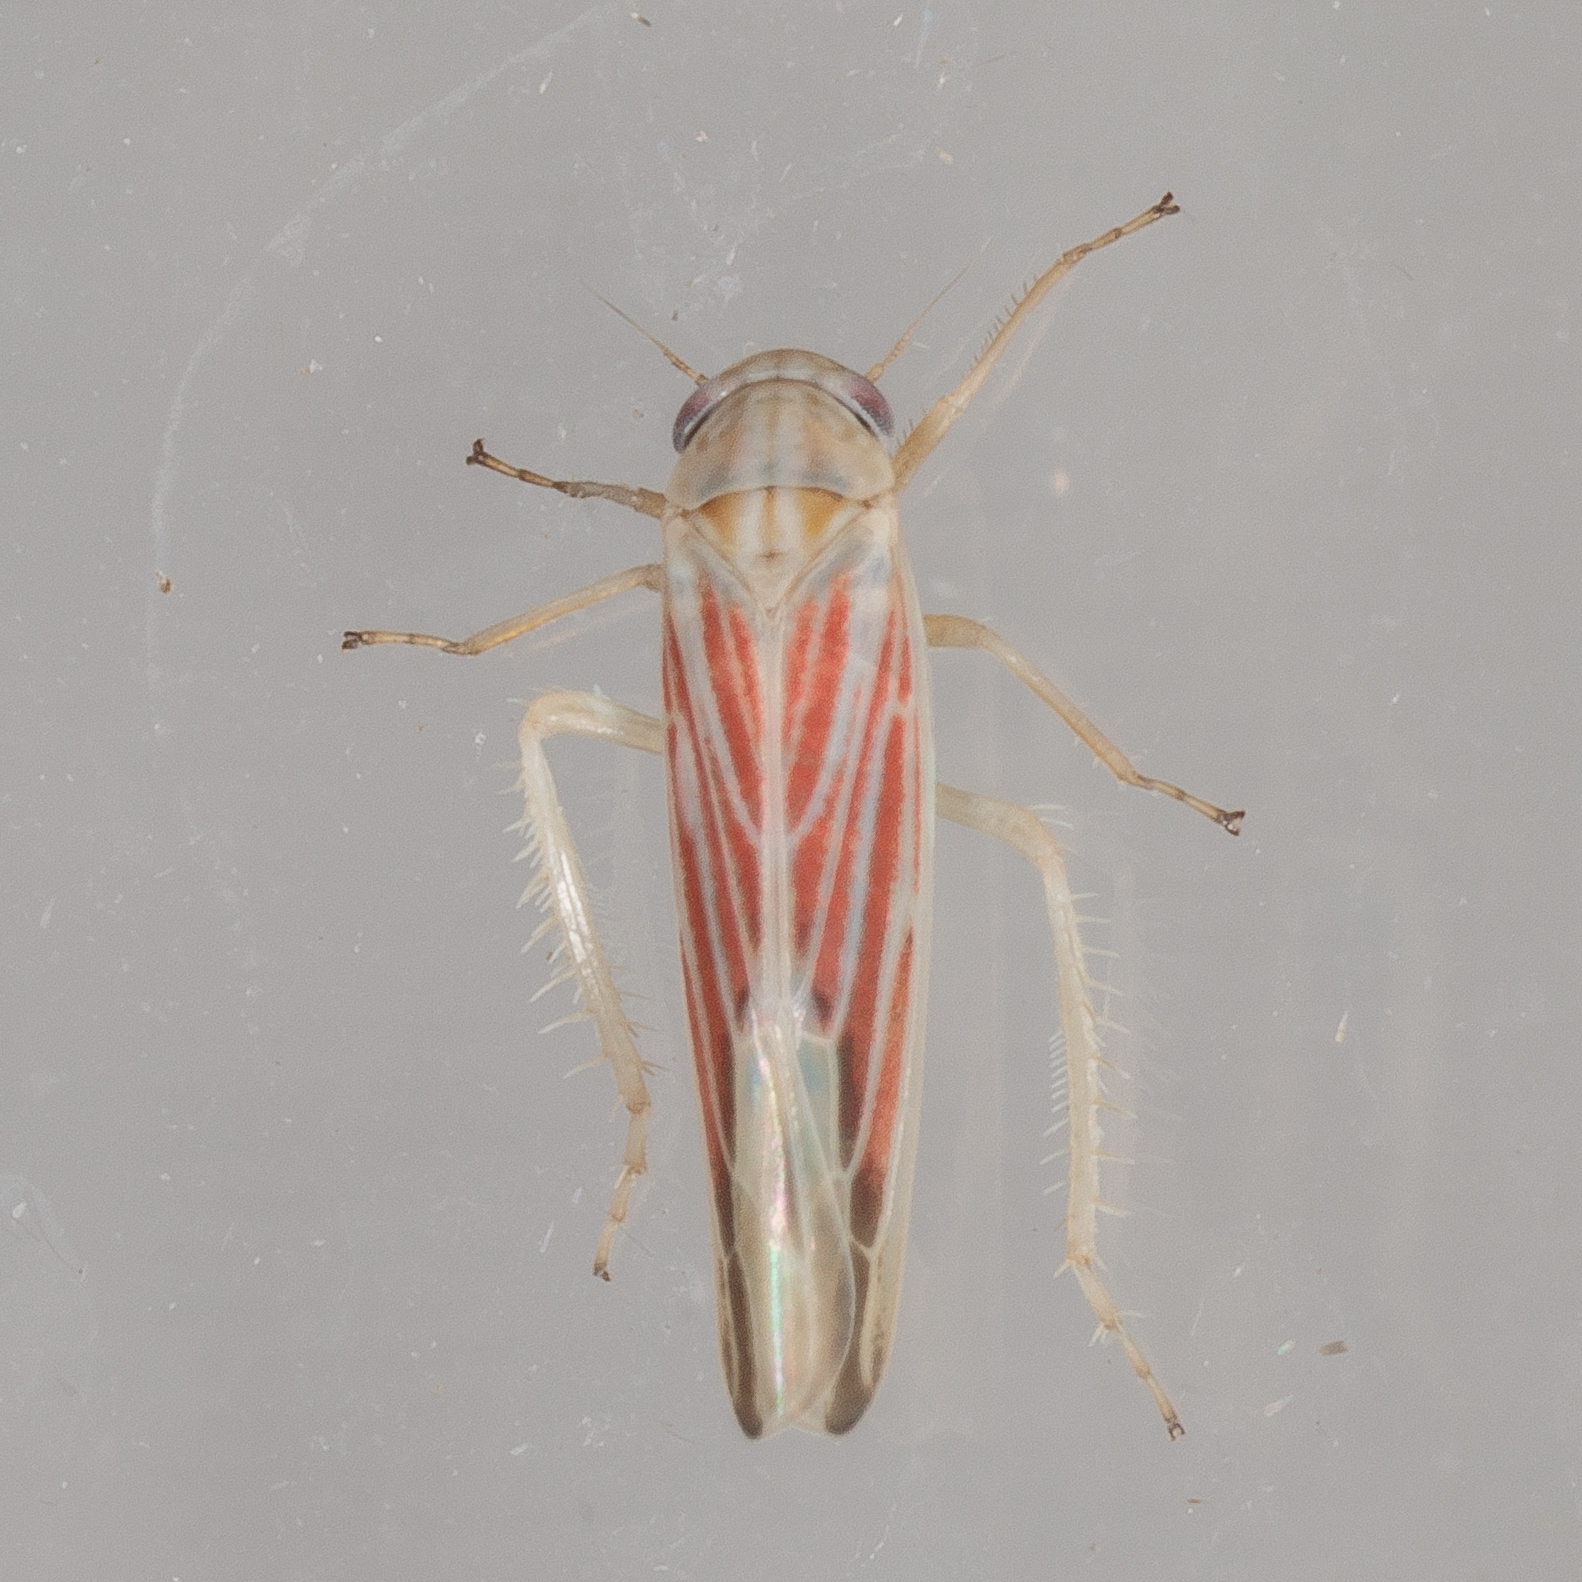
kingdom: Animalia
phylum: Arthropoda
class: Insecta
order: Hemiptera
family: Cicadellidae
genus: Balclutha
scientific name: Balclutha rubrostriata
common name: Red-streaked leafhopper
